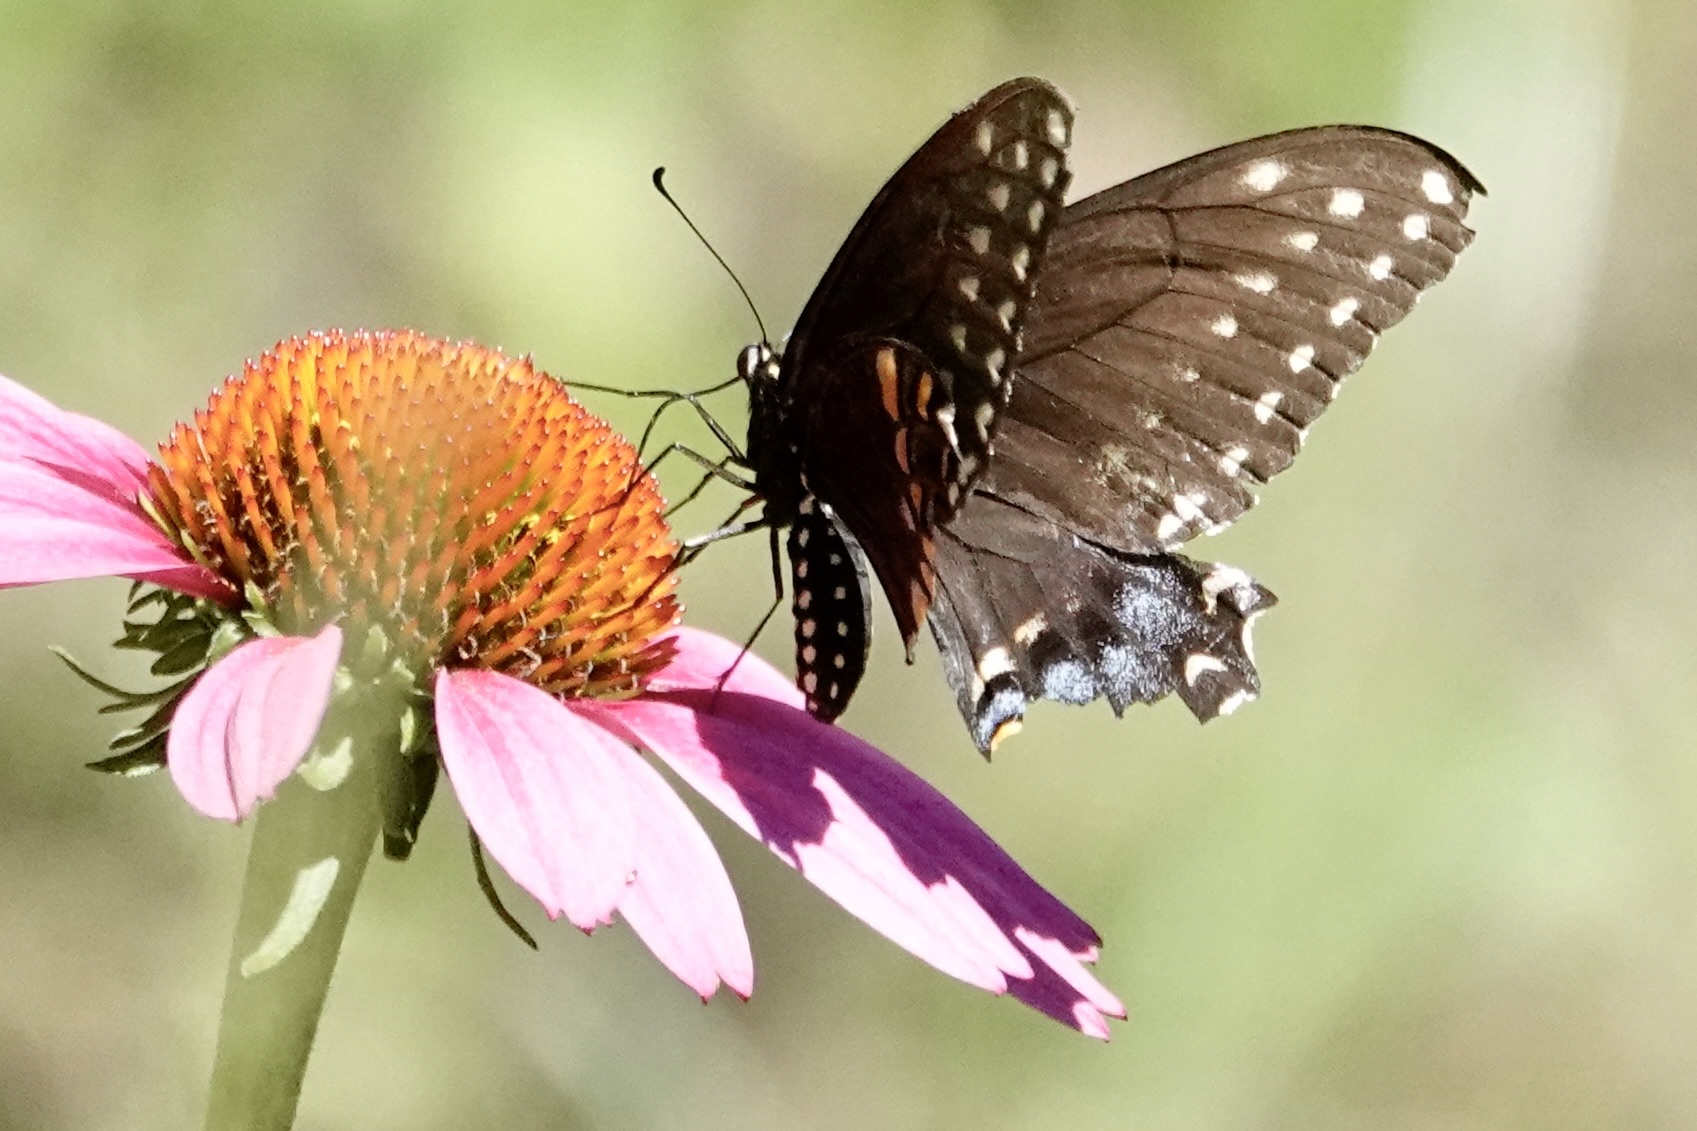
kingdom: Animalia
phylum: Arthropoda
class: Insecta
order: Lepidoptera
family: Papilionidae
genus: Papilio
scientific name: Papilio polyxenes
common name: Black swallowtail
